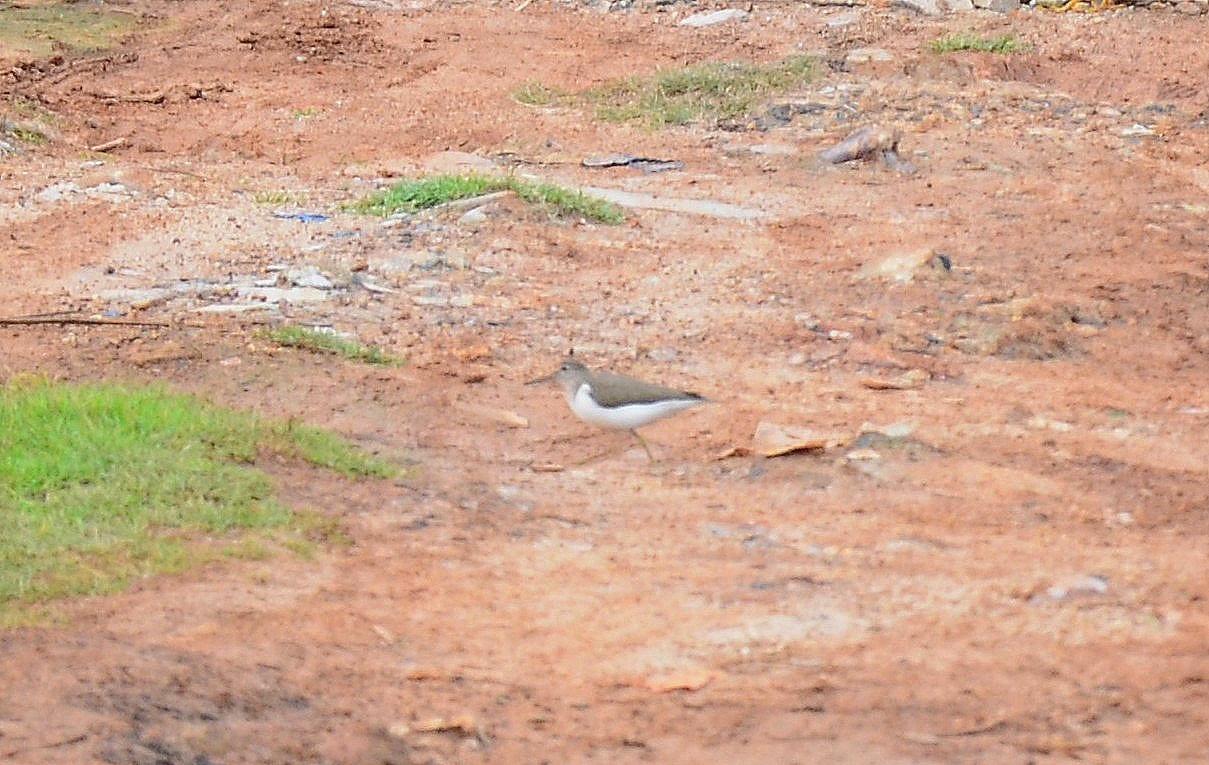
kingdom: Animalia
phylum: Chordata
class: Aves
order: Charadriiformes
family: Scolopacidae
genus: Actitis
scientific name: Actitis hypoleucos
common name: Common sandpiper
